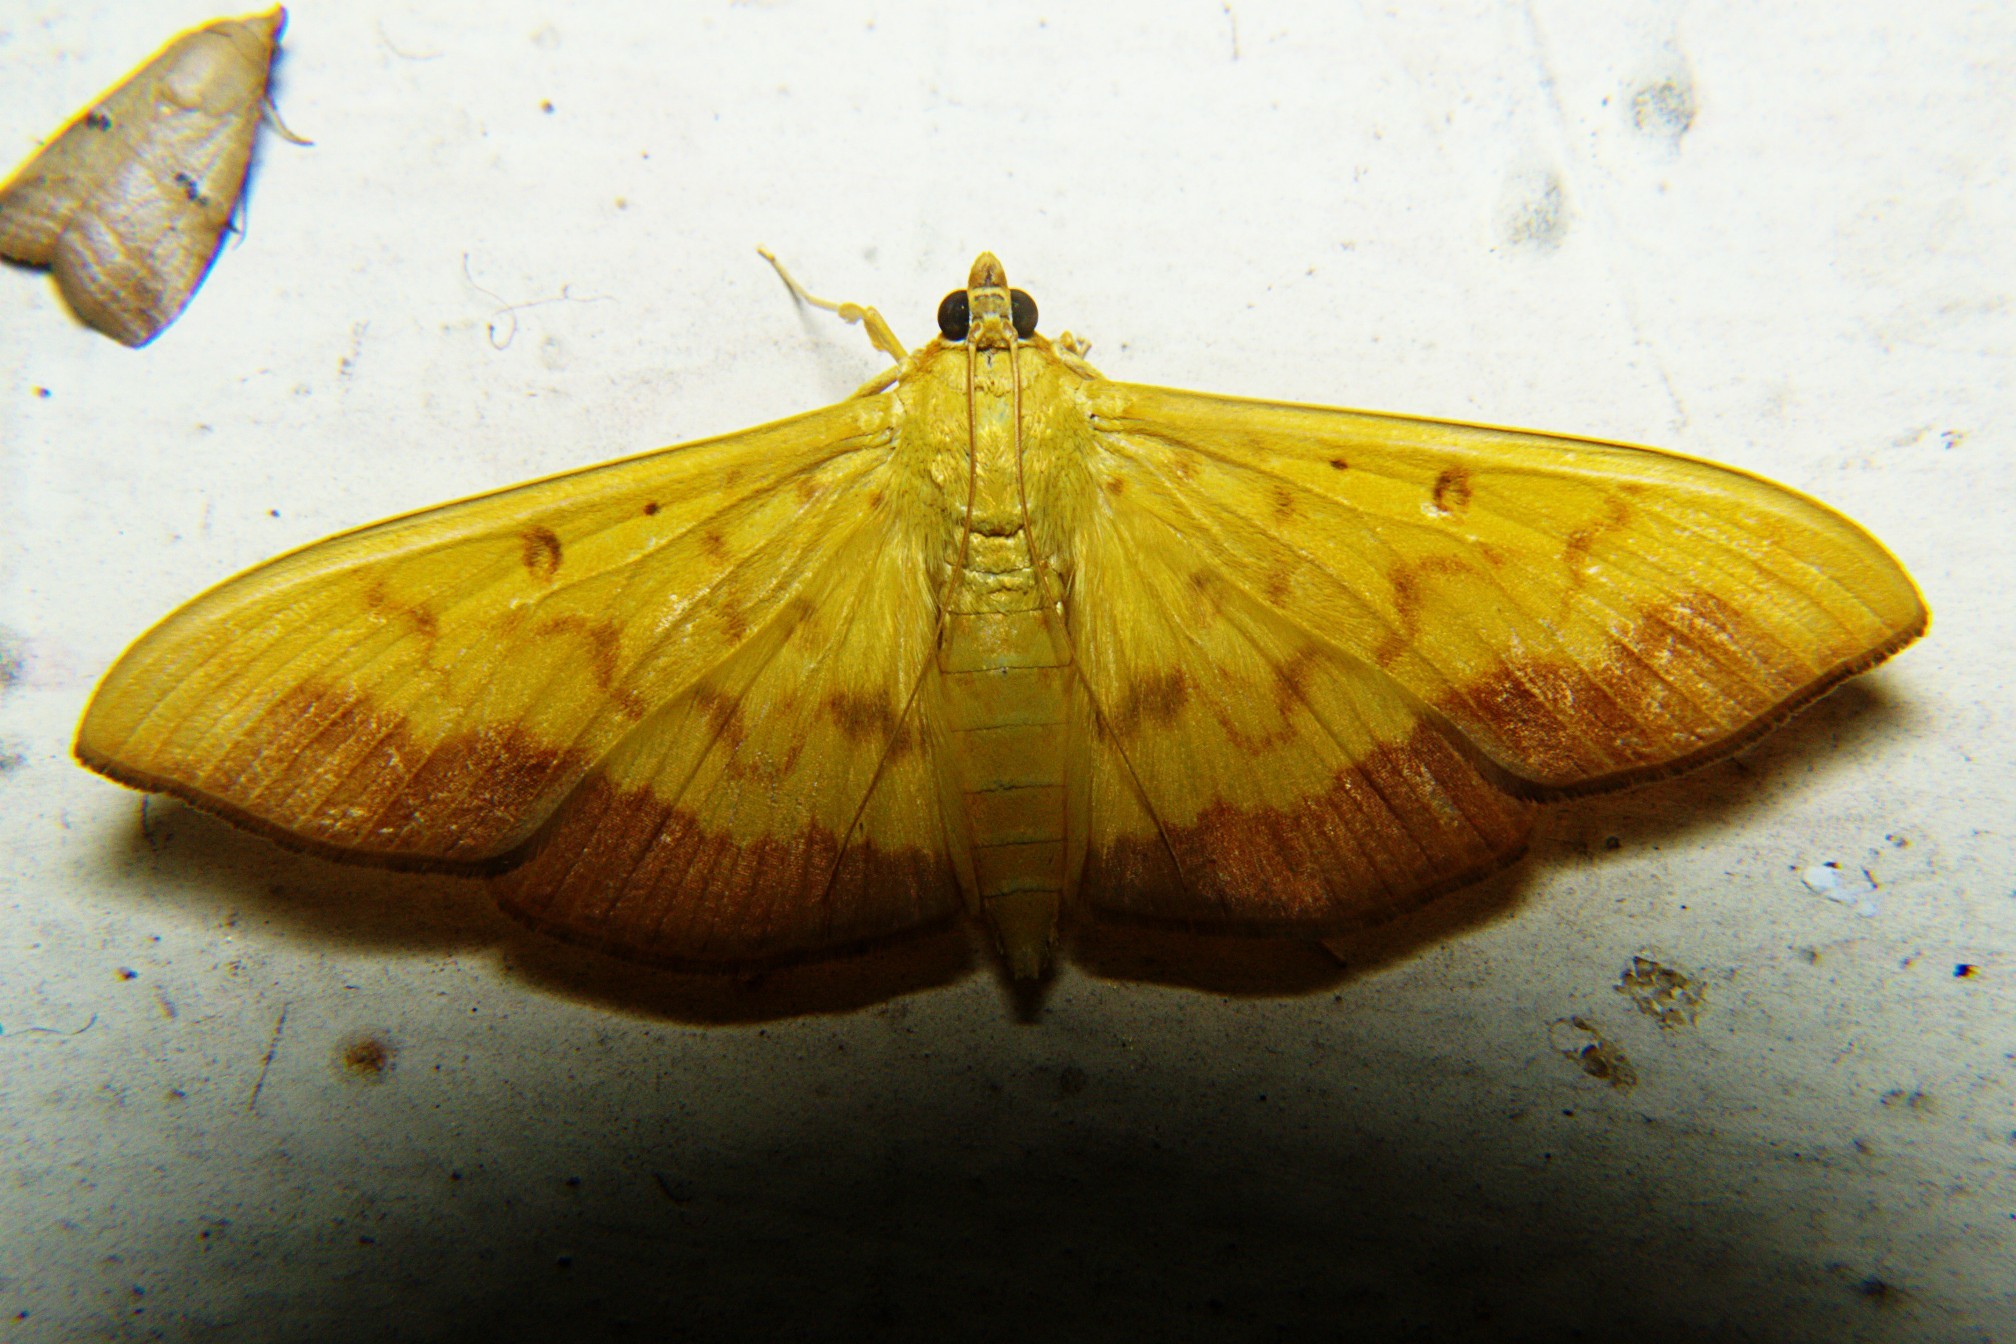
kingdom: Animalia
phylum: Arthropoda
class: Insecta
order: Lepidoptera
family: Crambidae
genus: Botyodes
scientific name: Botyodes asialis
